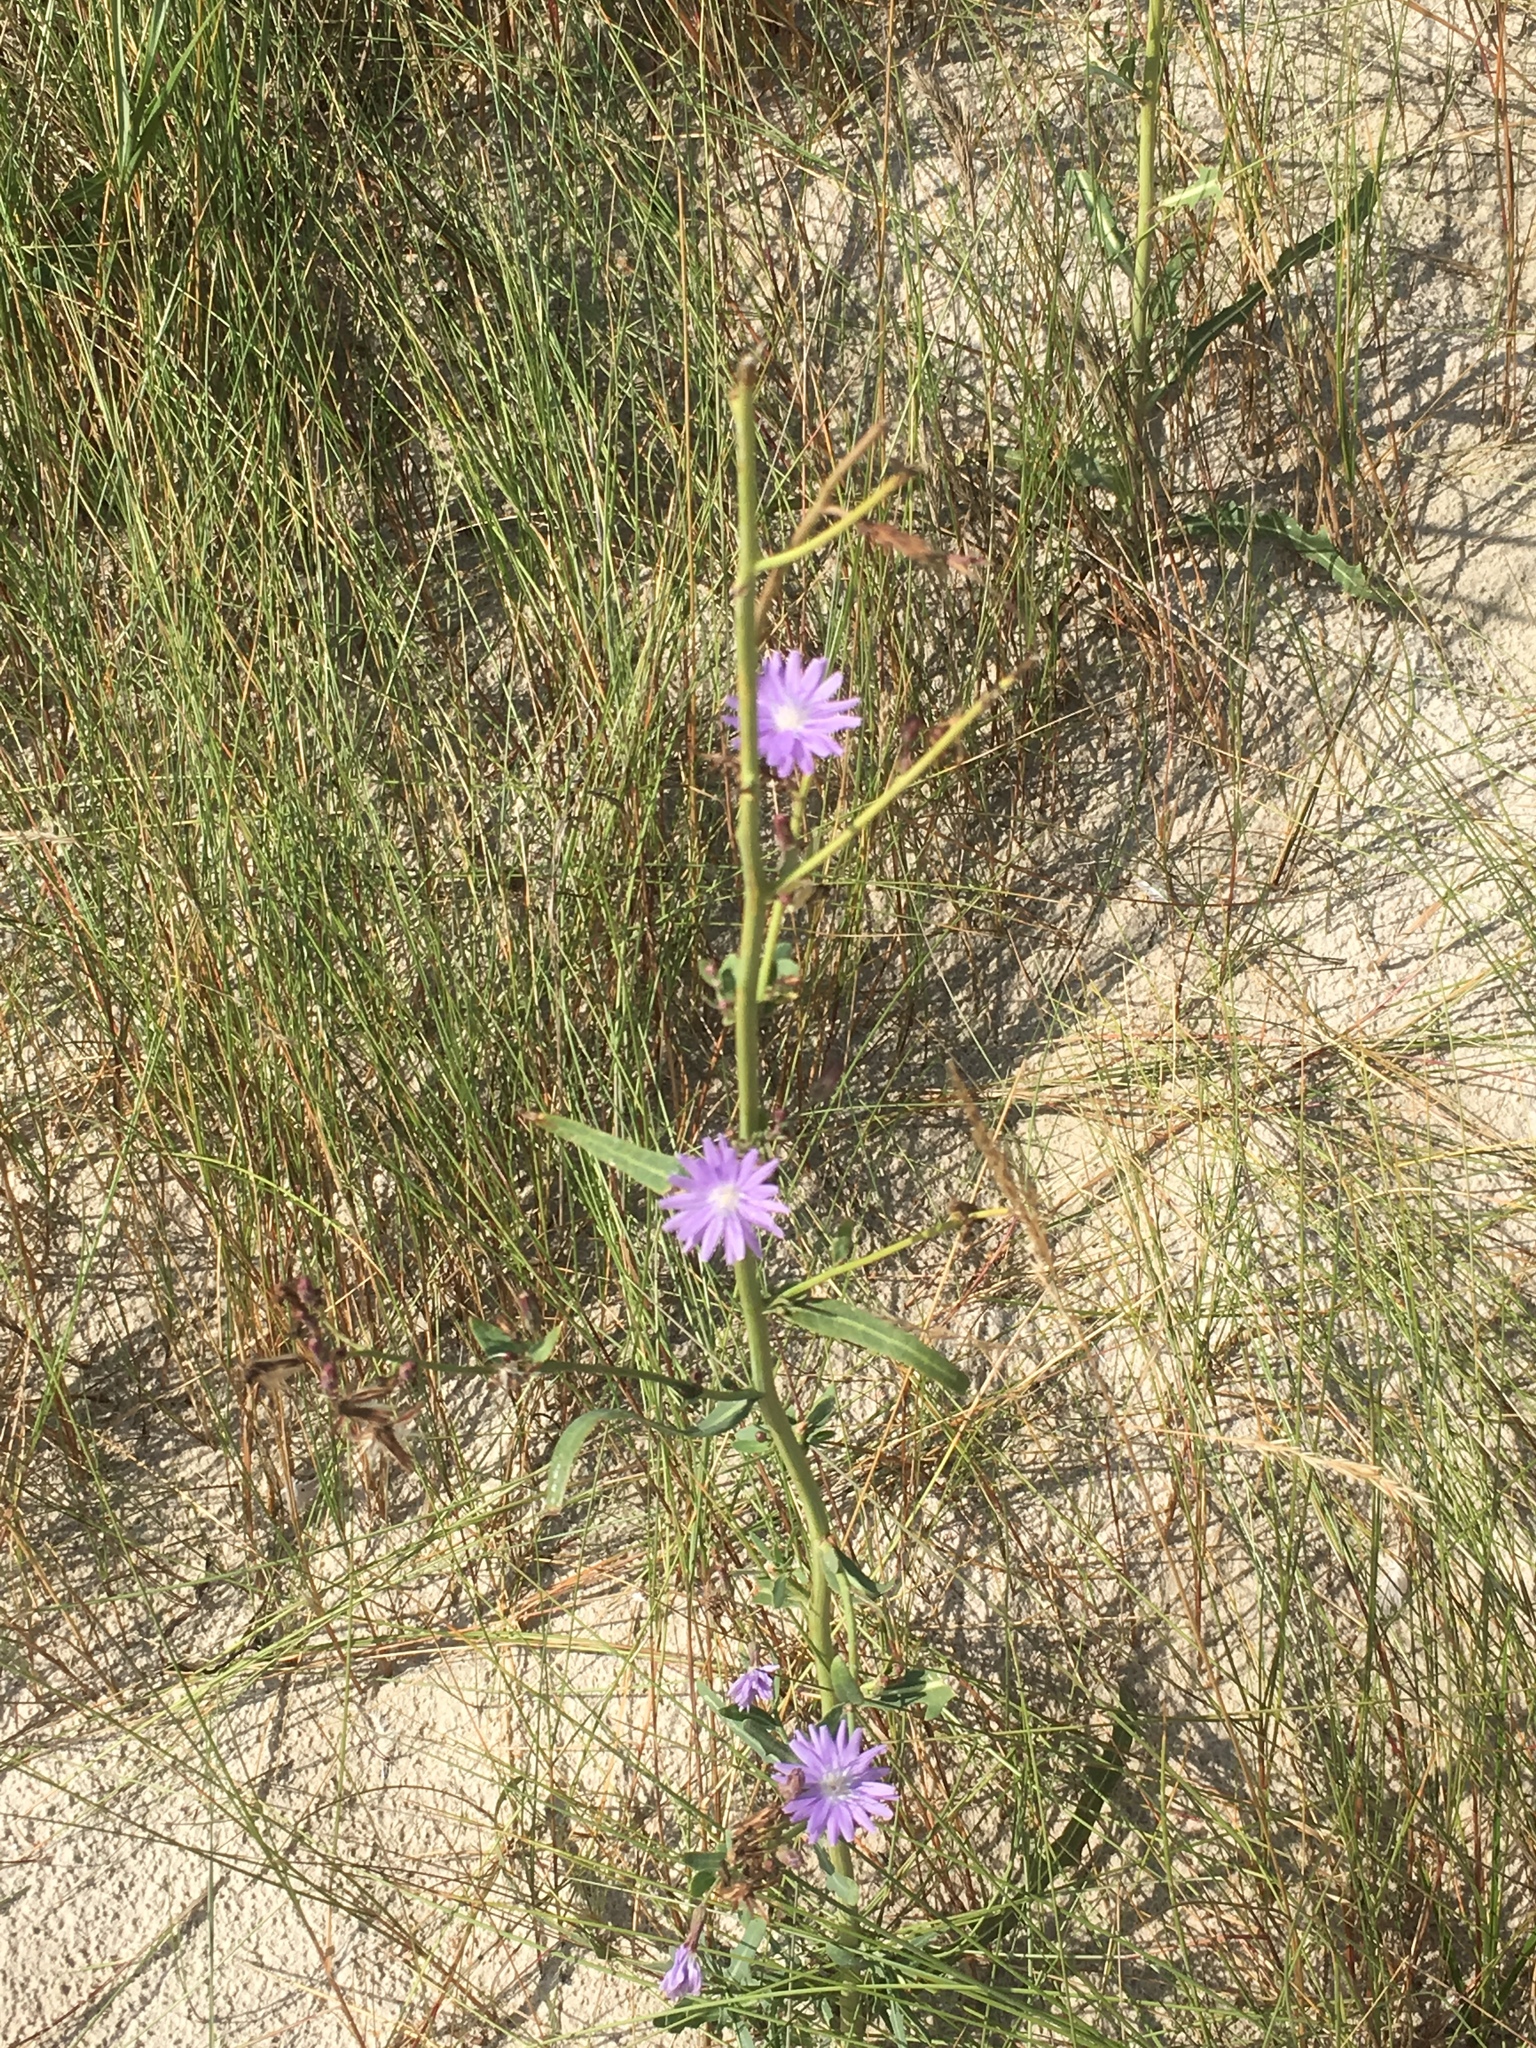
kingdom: Plantae
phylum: Tracheophyta
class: Magnoliopsida
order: Asterales
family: Asteraceae
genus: Lactuca
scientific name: Lactuca tatarica
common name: Blue lettuce
